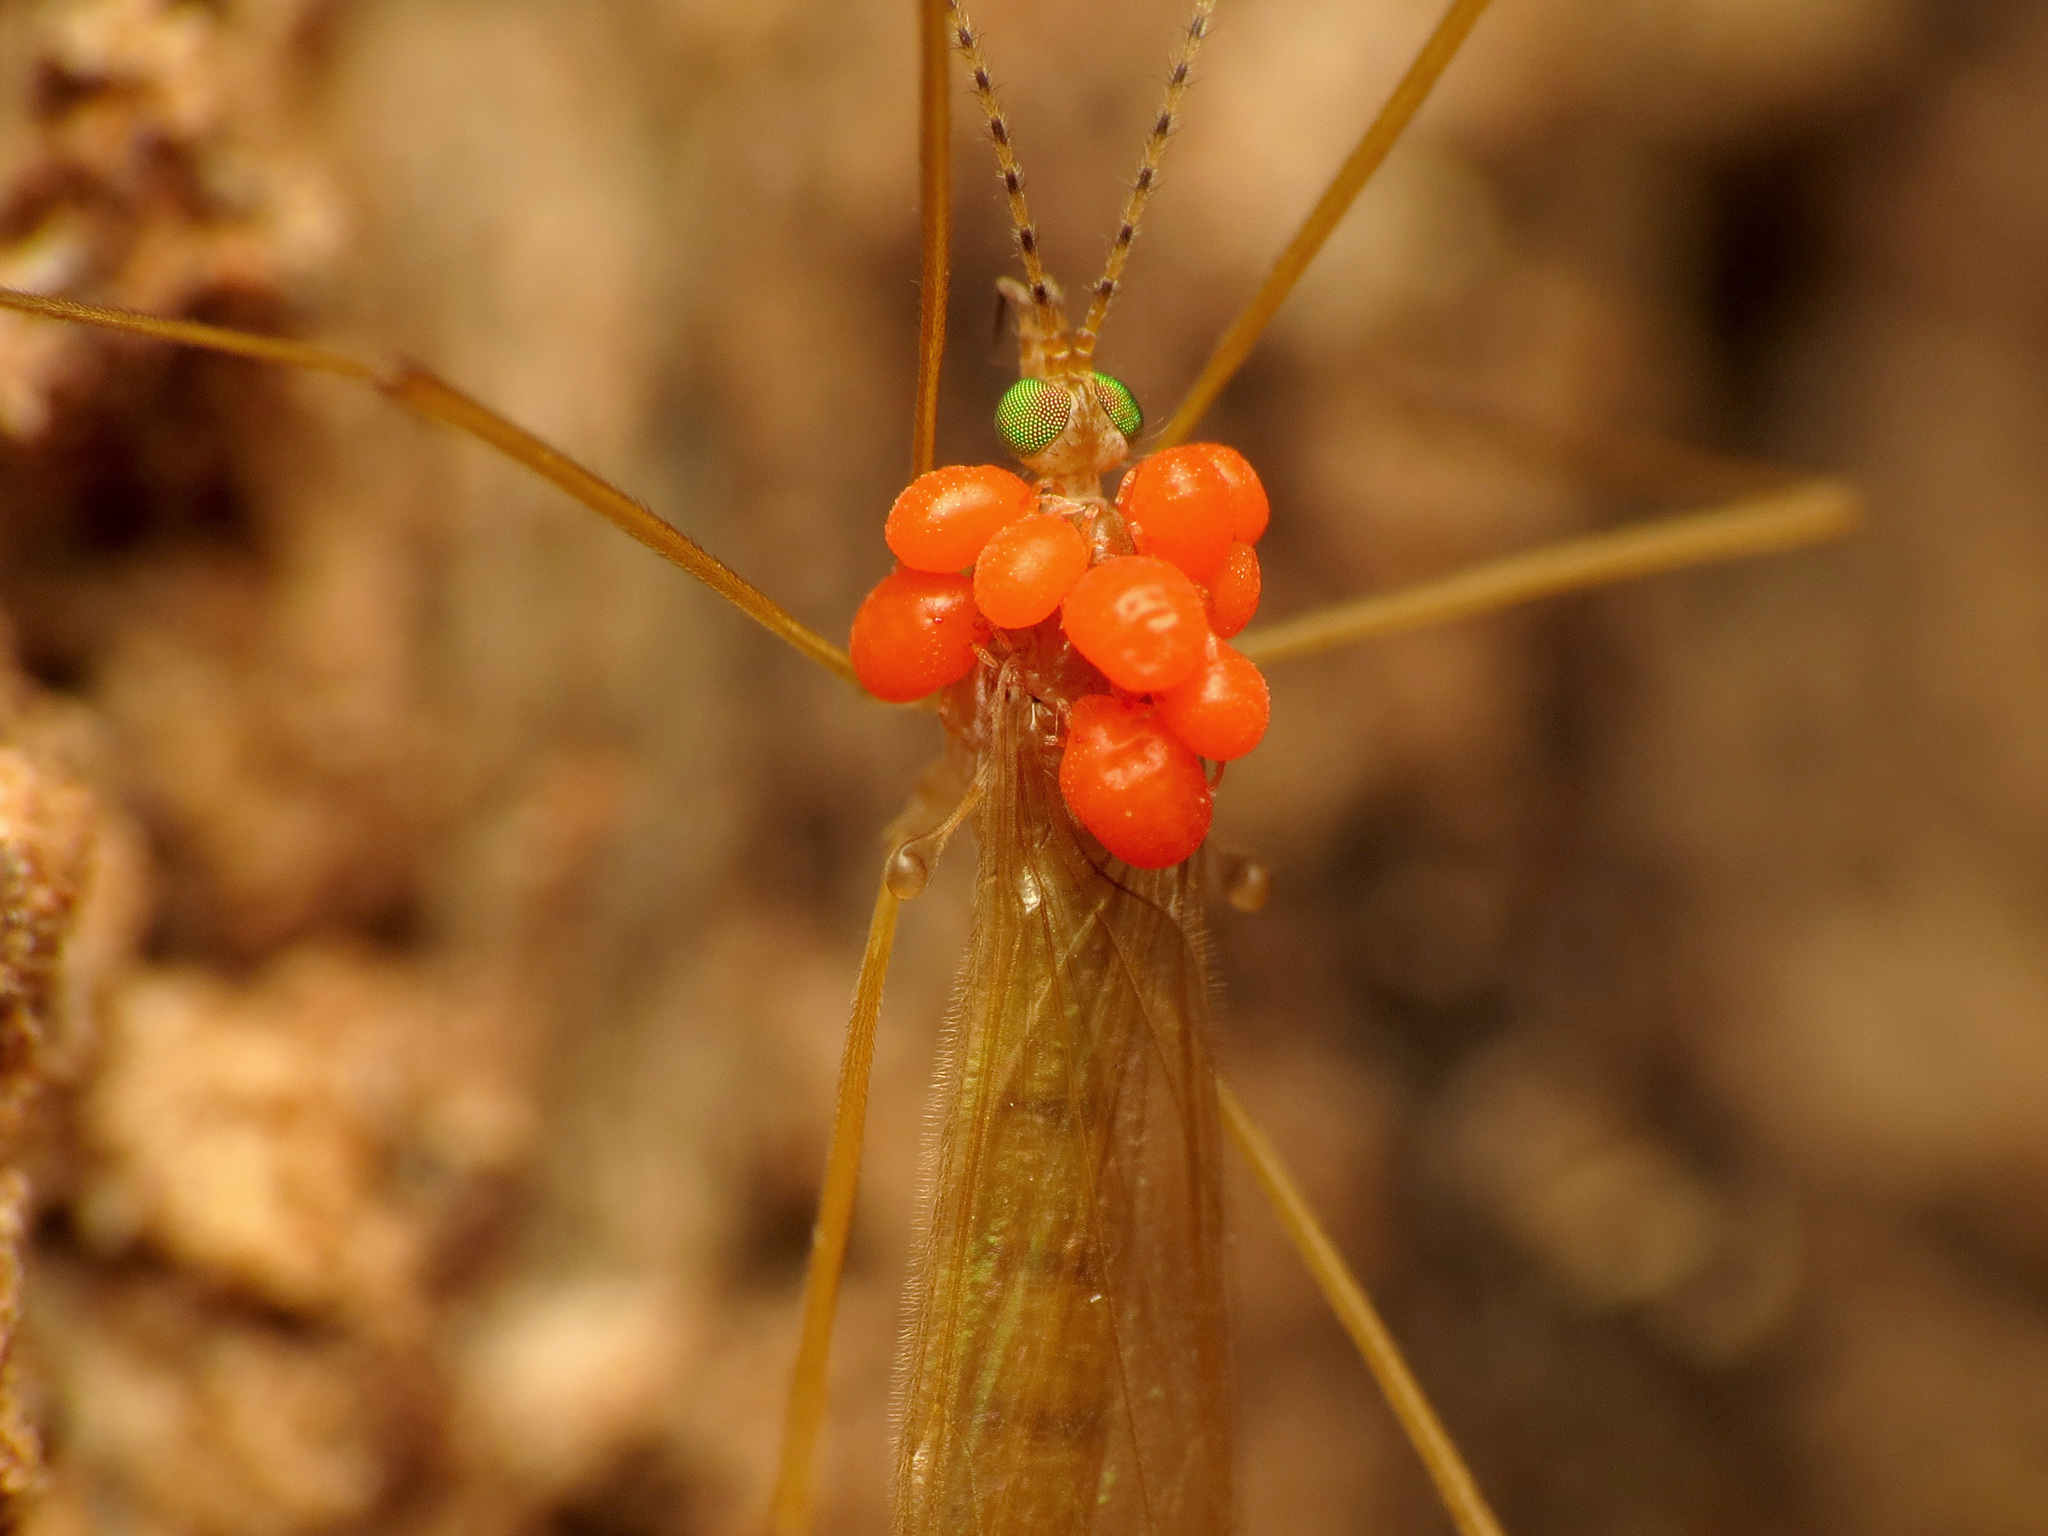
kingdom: Animalia
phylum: Arthropoda
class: Insecta
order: Diptera
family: Limoniidae
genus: Atarba
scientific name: Atarba picticornis
